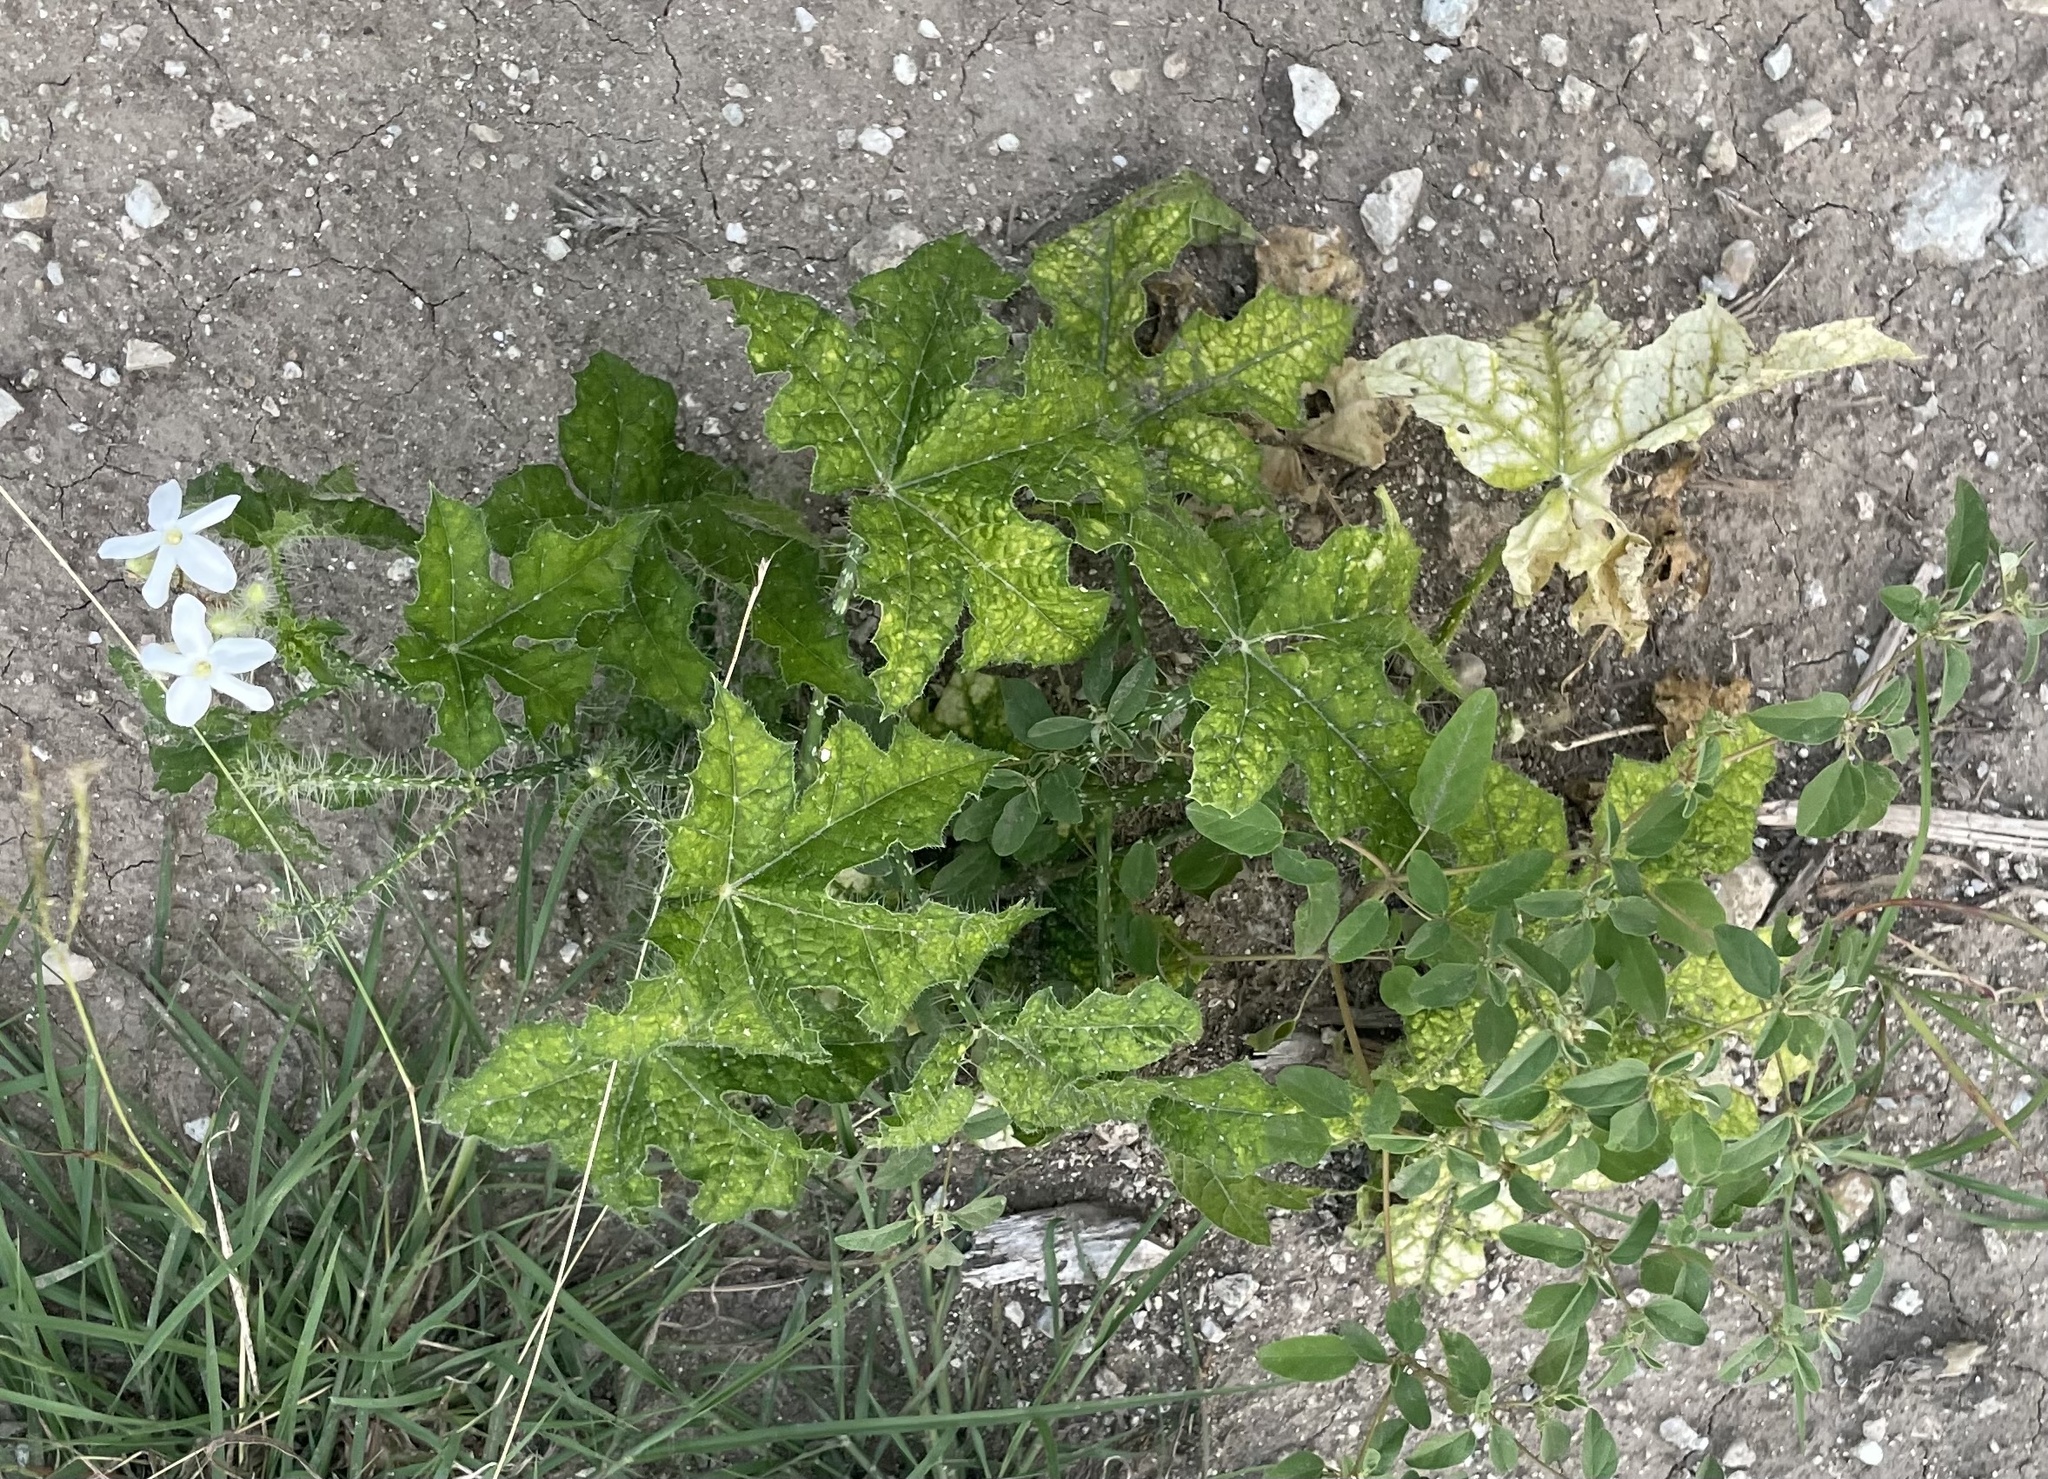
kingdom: Plantae
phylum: Tracheophyta
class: Magnoliopsida
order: Malpighiales
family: Euphorbiaceae
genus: Cnidoscolus
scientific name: Cnidoscolus texanus
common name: Texas bull-nettle
